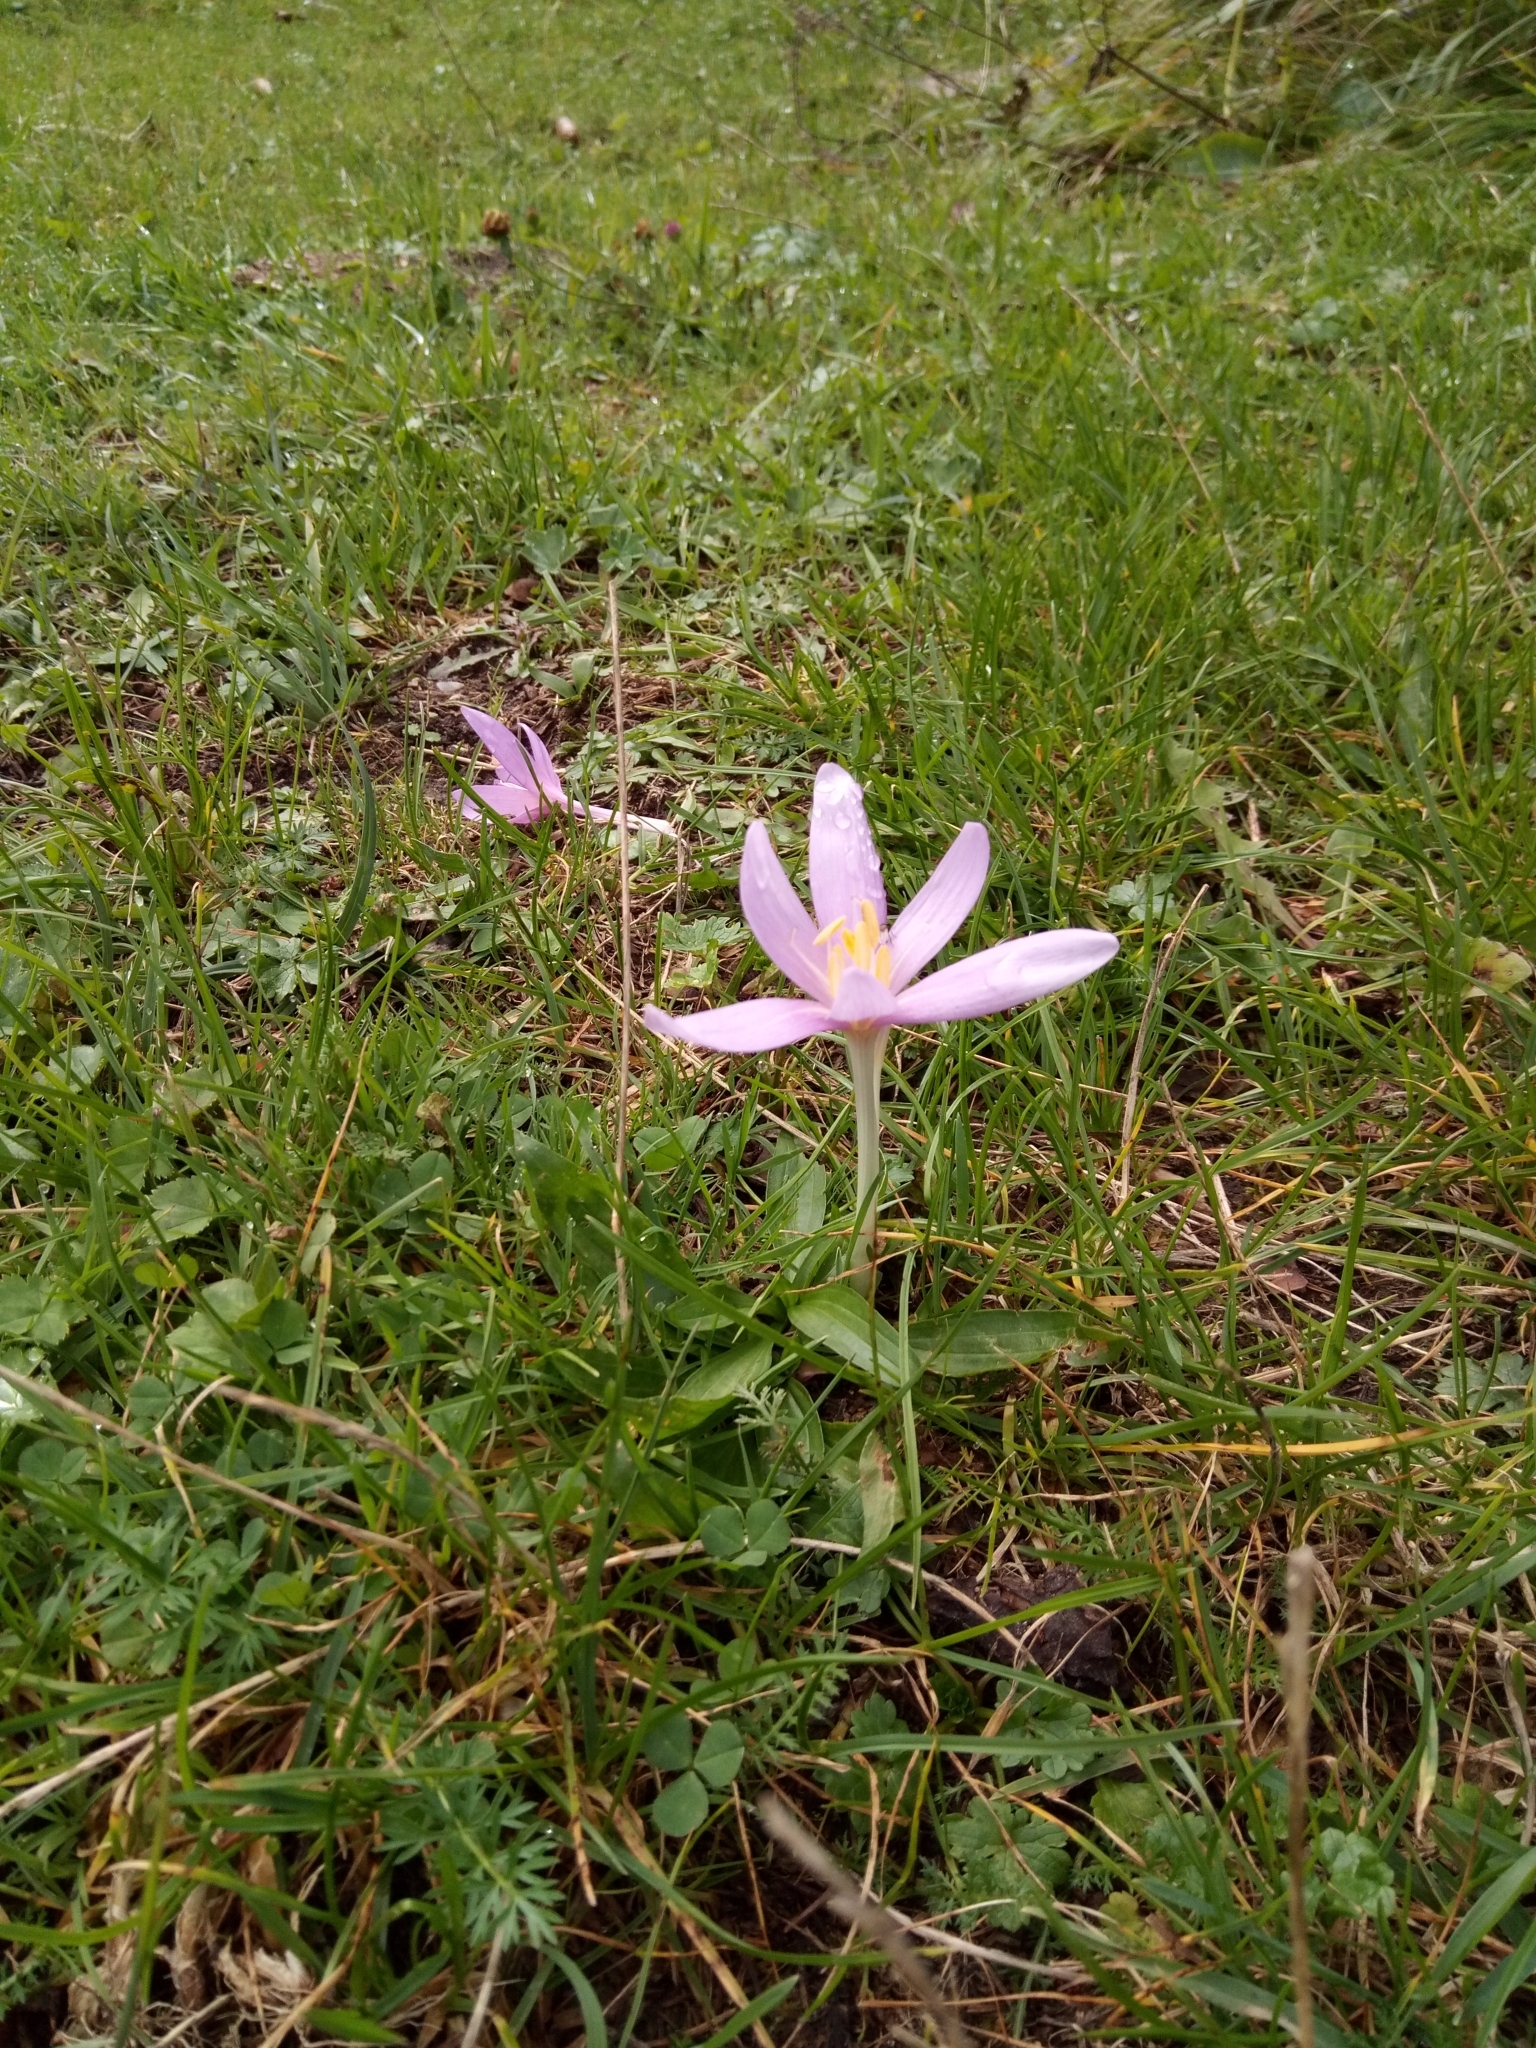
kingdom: Plantae
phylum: Tracheophyta
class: Liliopsida
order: Liliales
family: Colchicaceae
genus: Colchicum
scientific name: Colchicum autumnale
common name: Autumn crocus
